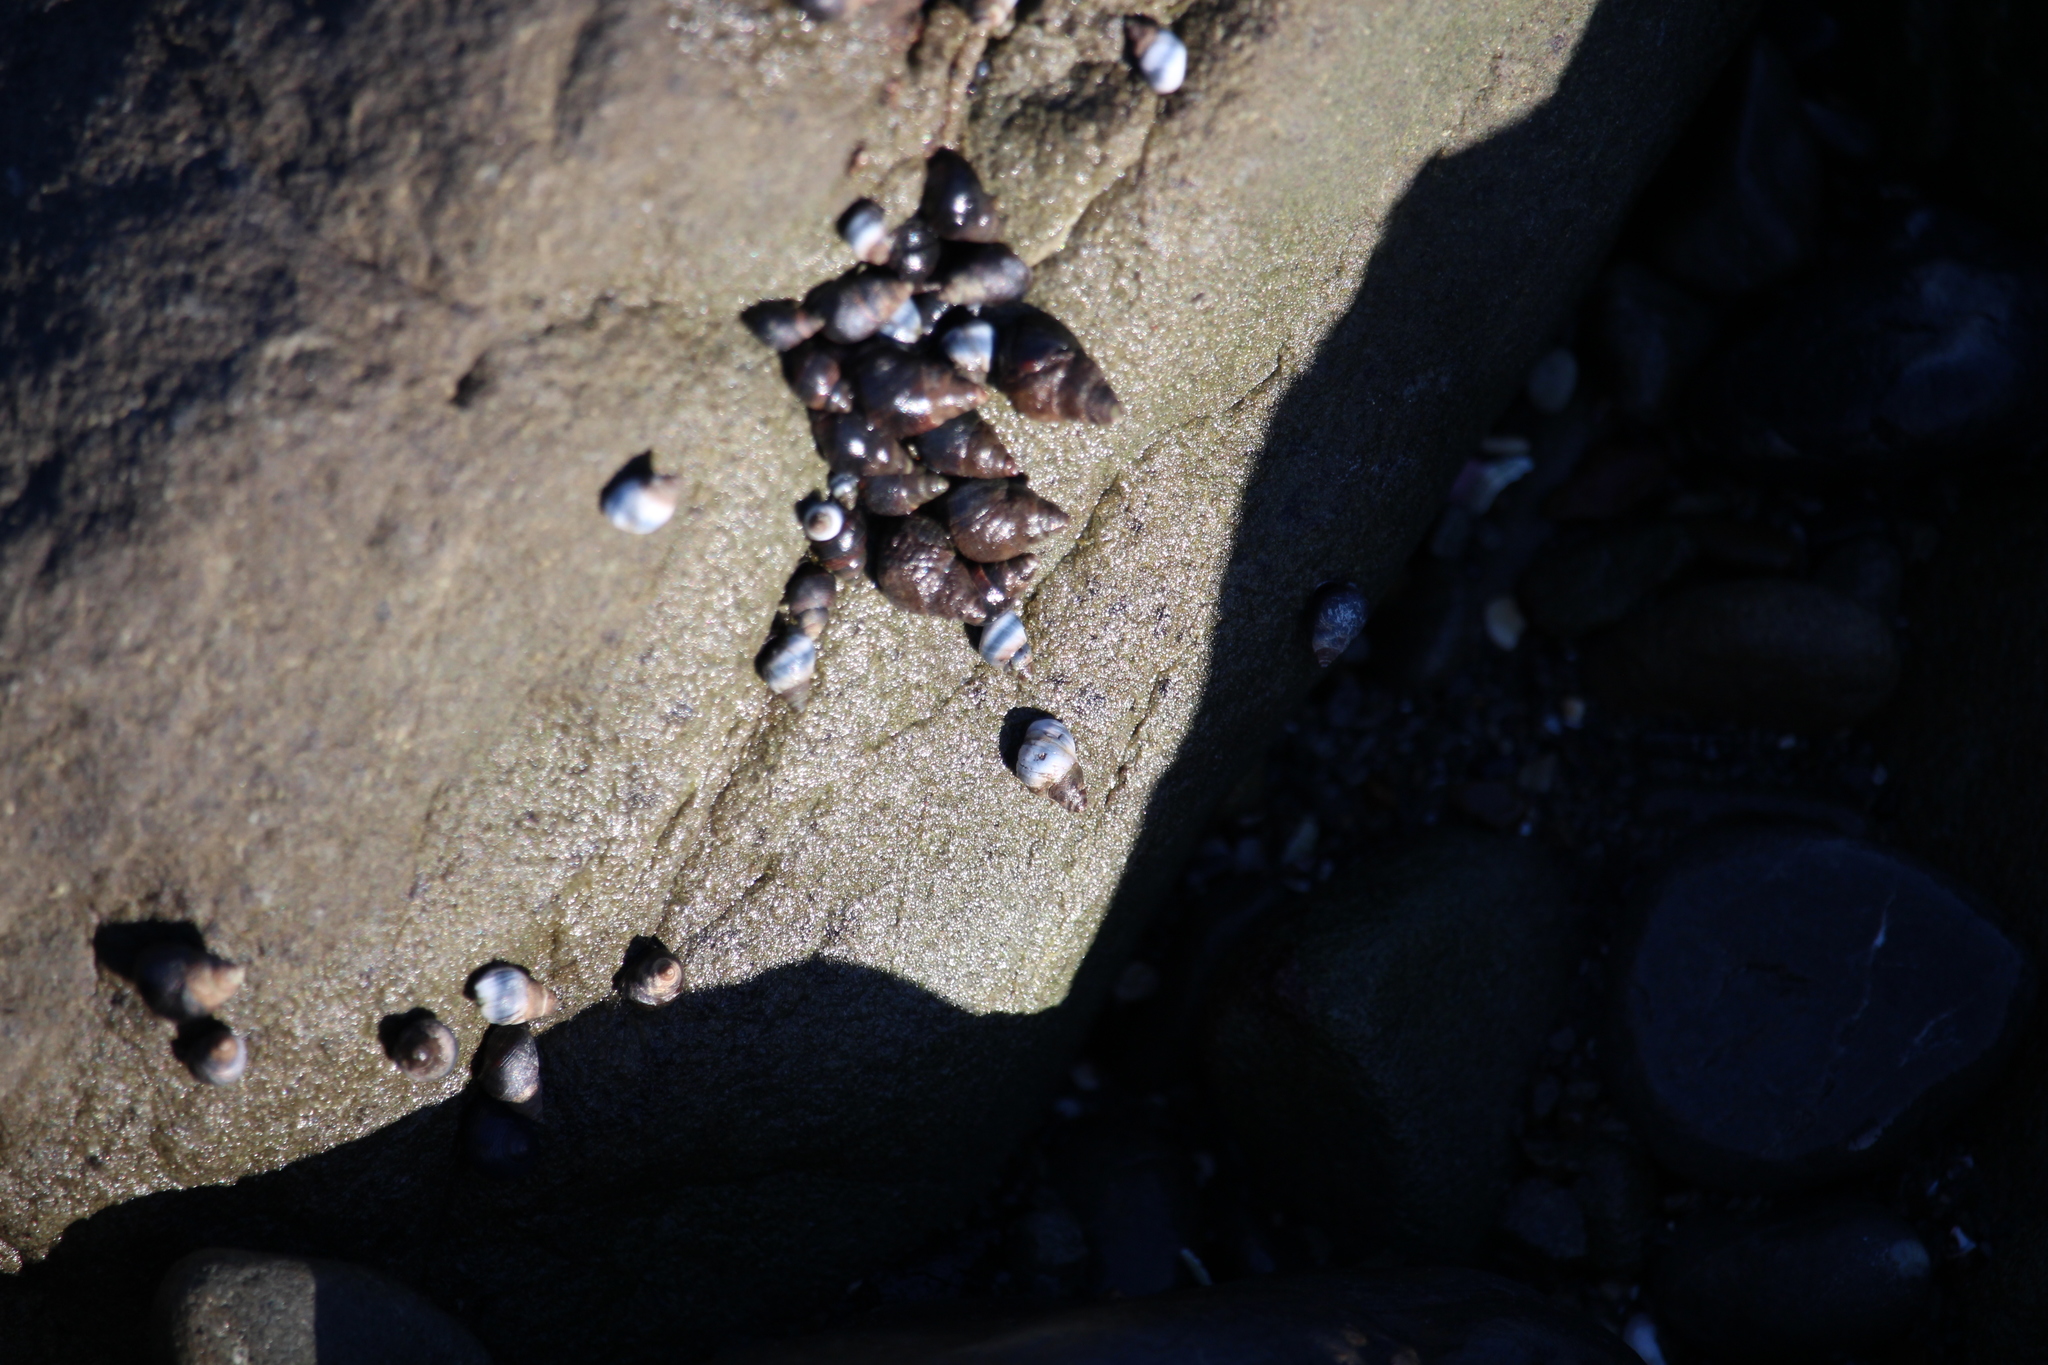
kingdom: Animalia
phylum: Mollusca
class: Gastropoda
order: Littorinimorpha
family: Littorinidae
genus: Austrolittorina
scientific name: Austrolittorina cincta
